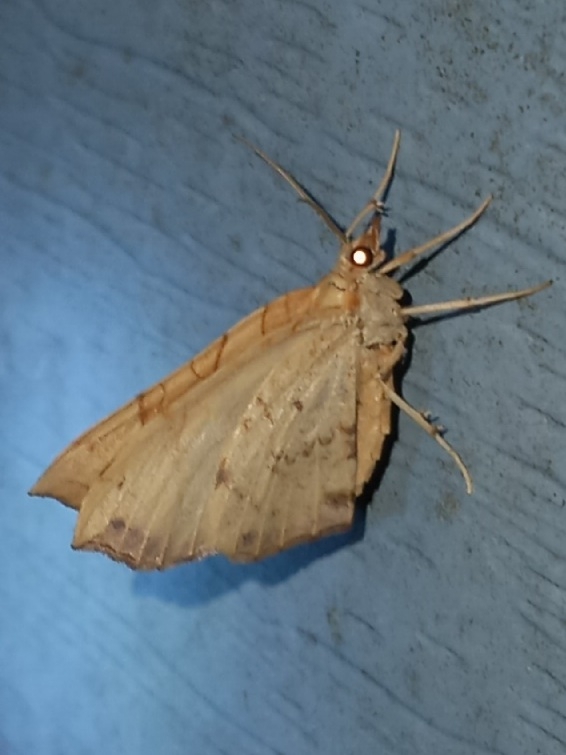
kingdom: Animalia
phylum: Arthropoda
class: Insecta
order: Lepidoptera
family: Geometridae
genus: Eulithis
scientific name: Eulithis
